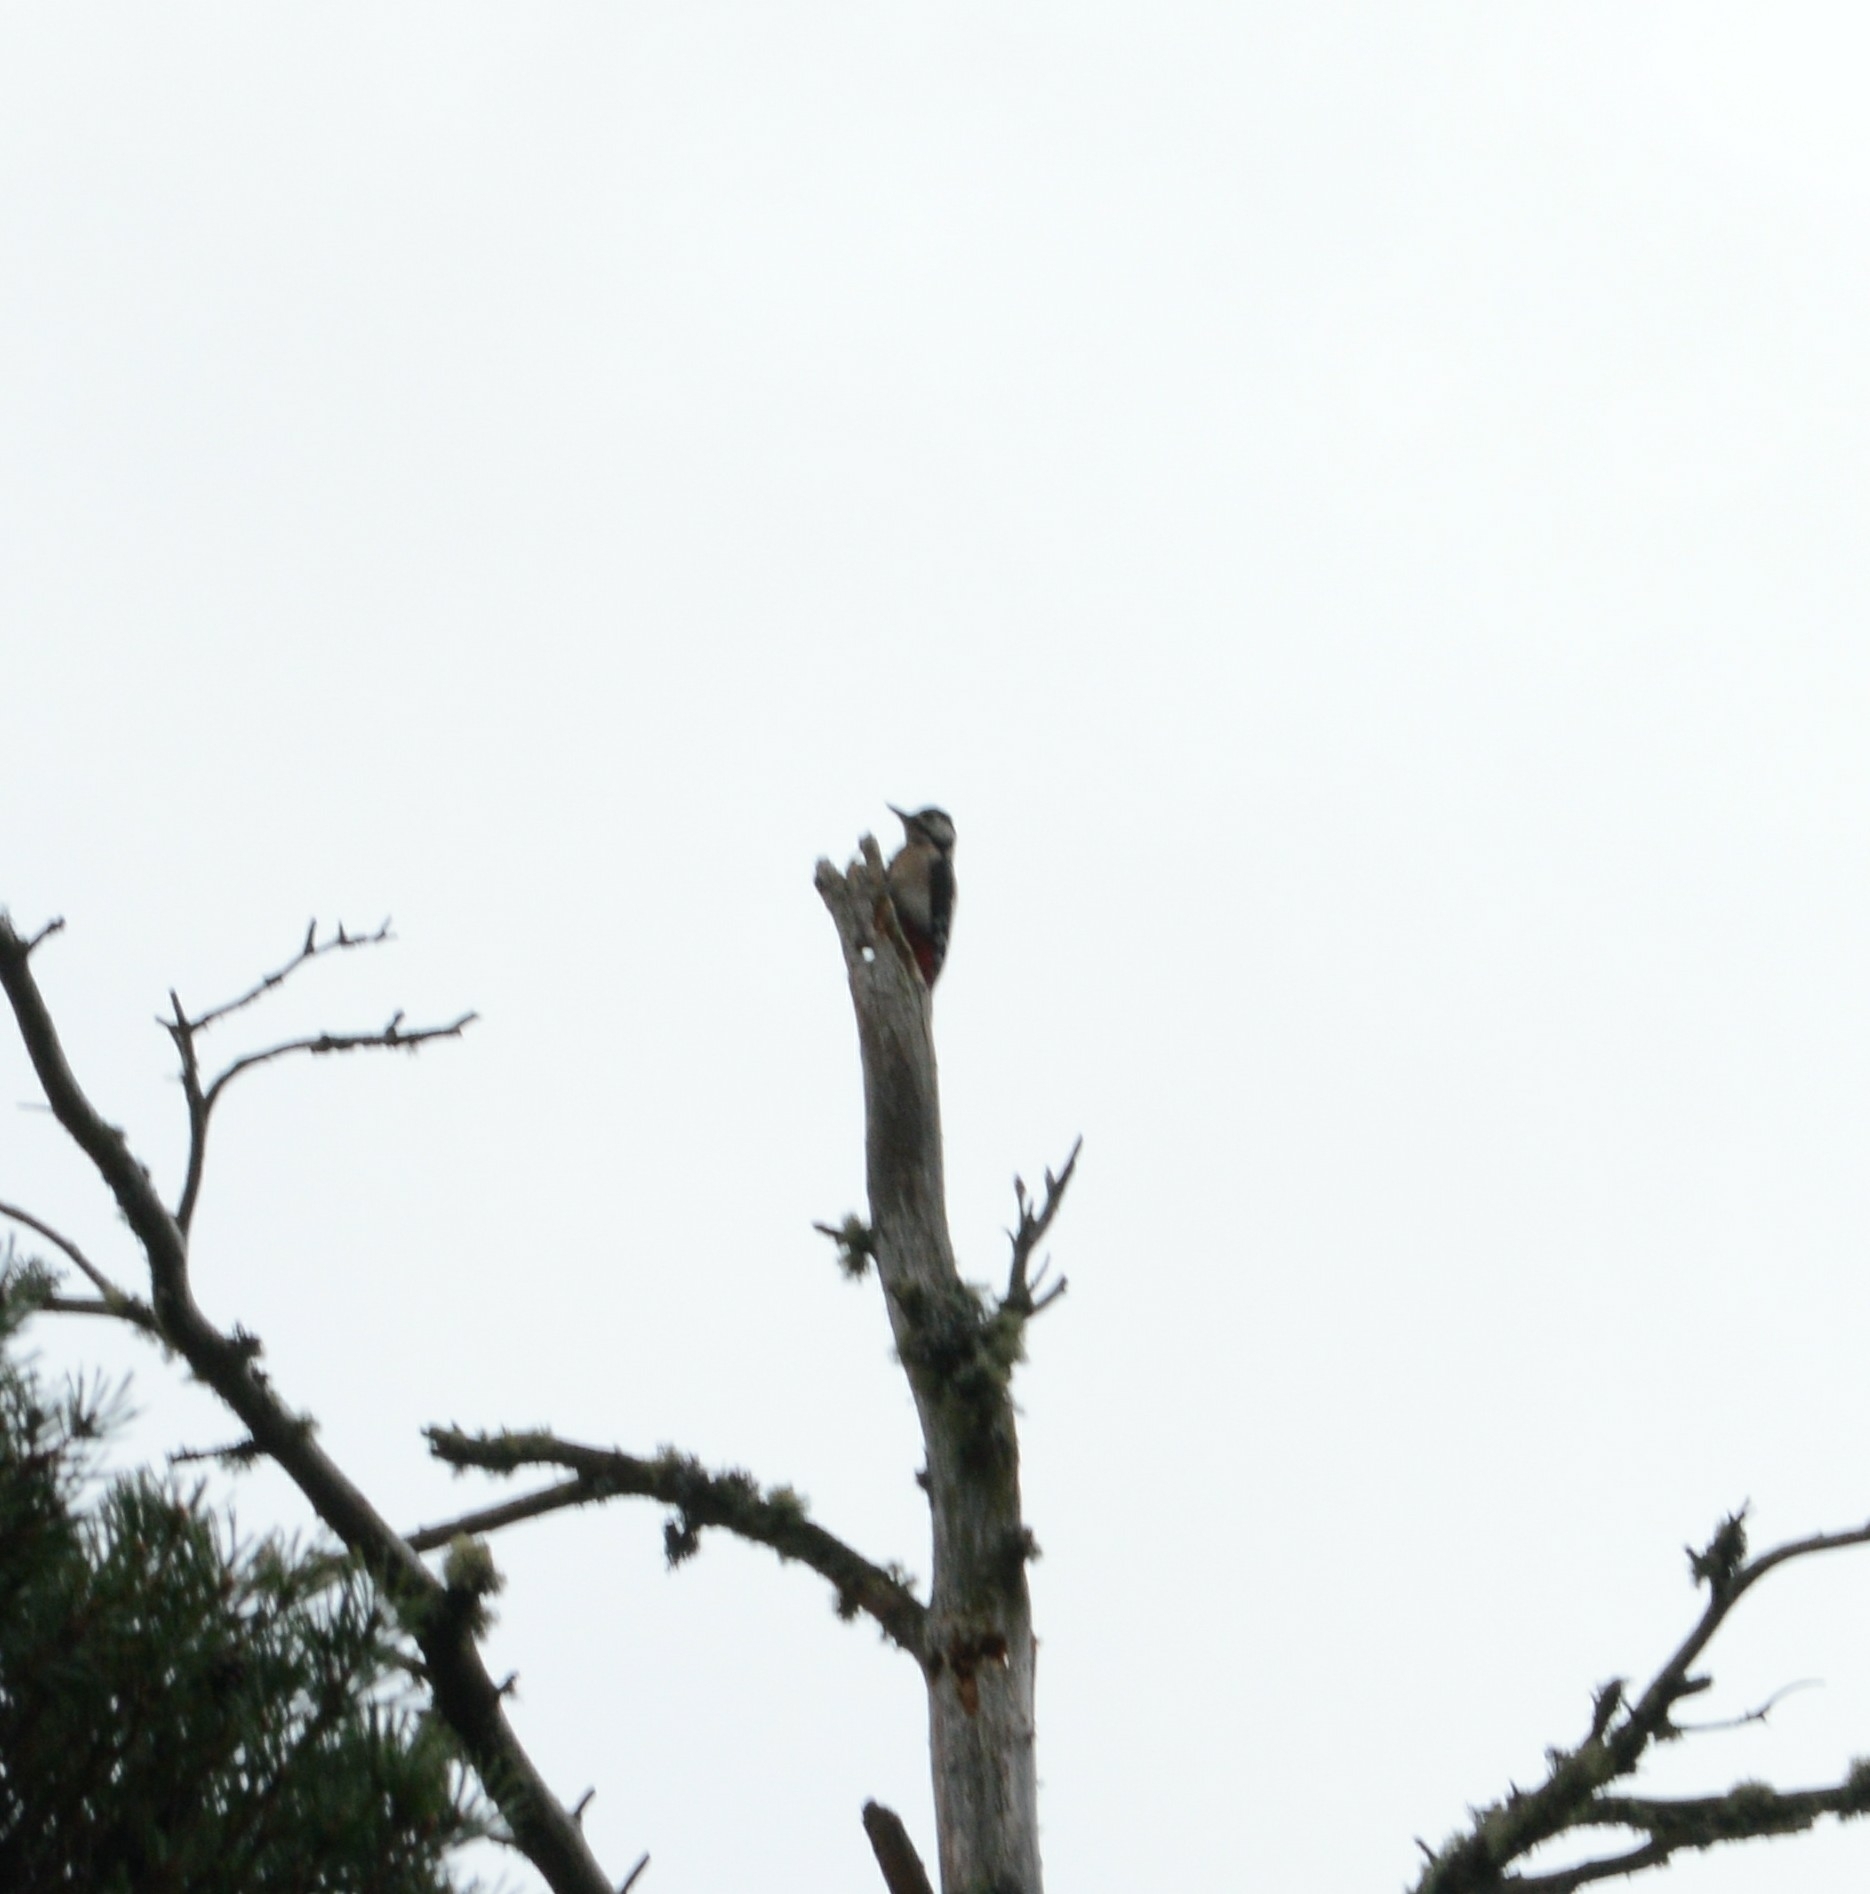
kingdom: Animalia
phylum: Chordata
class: Aves
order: Piciformes
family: Picidae
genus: Dendrocopos
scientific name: Dendrocopos major
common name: Great spotted woodpecker
